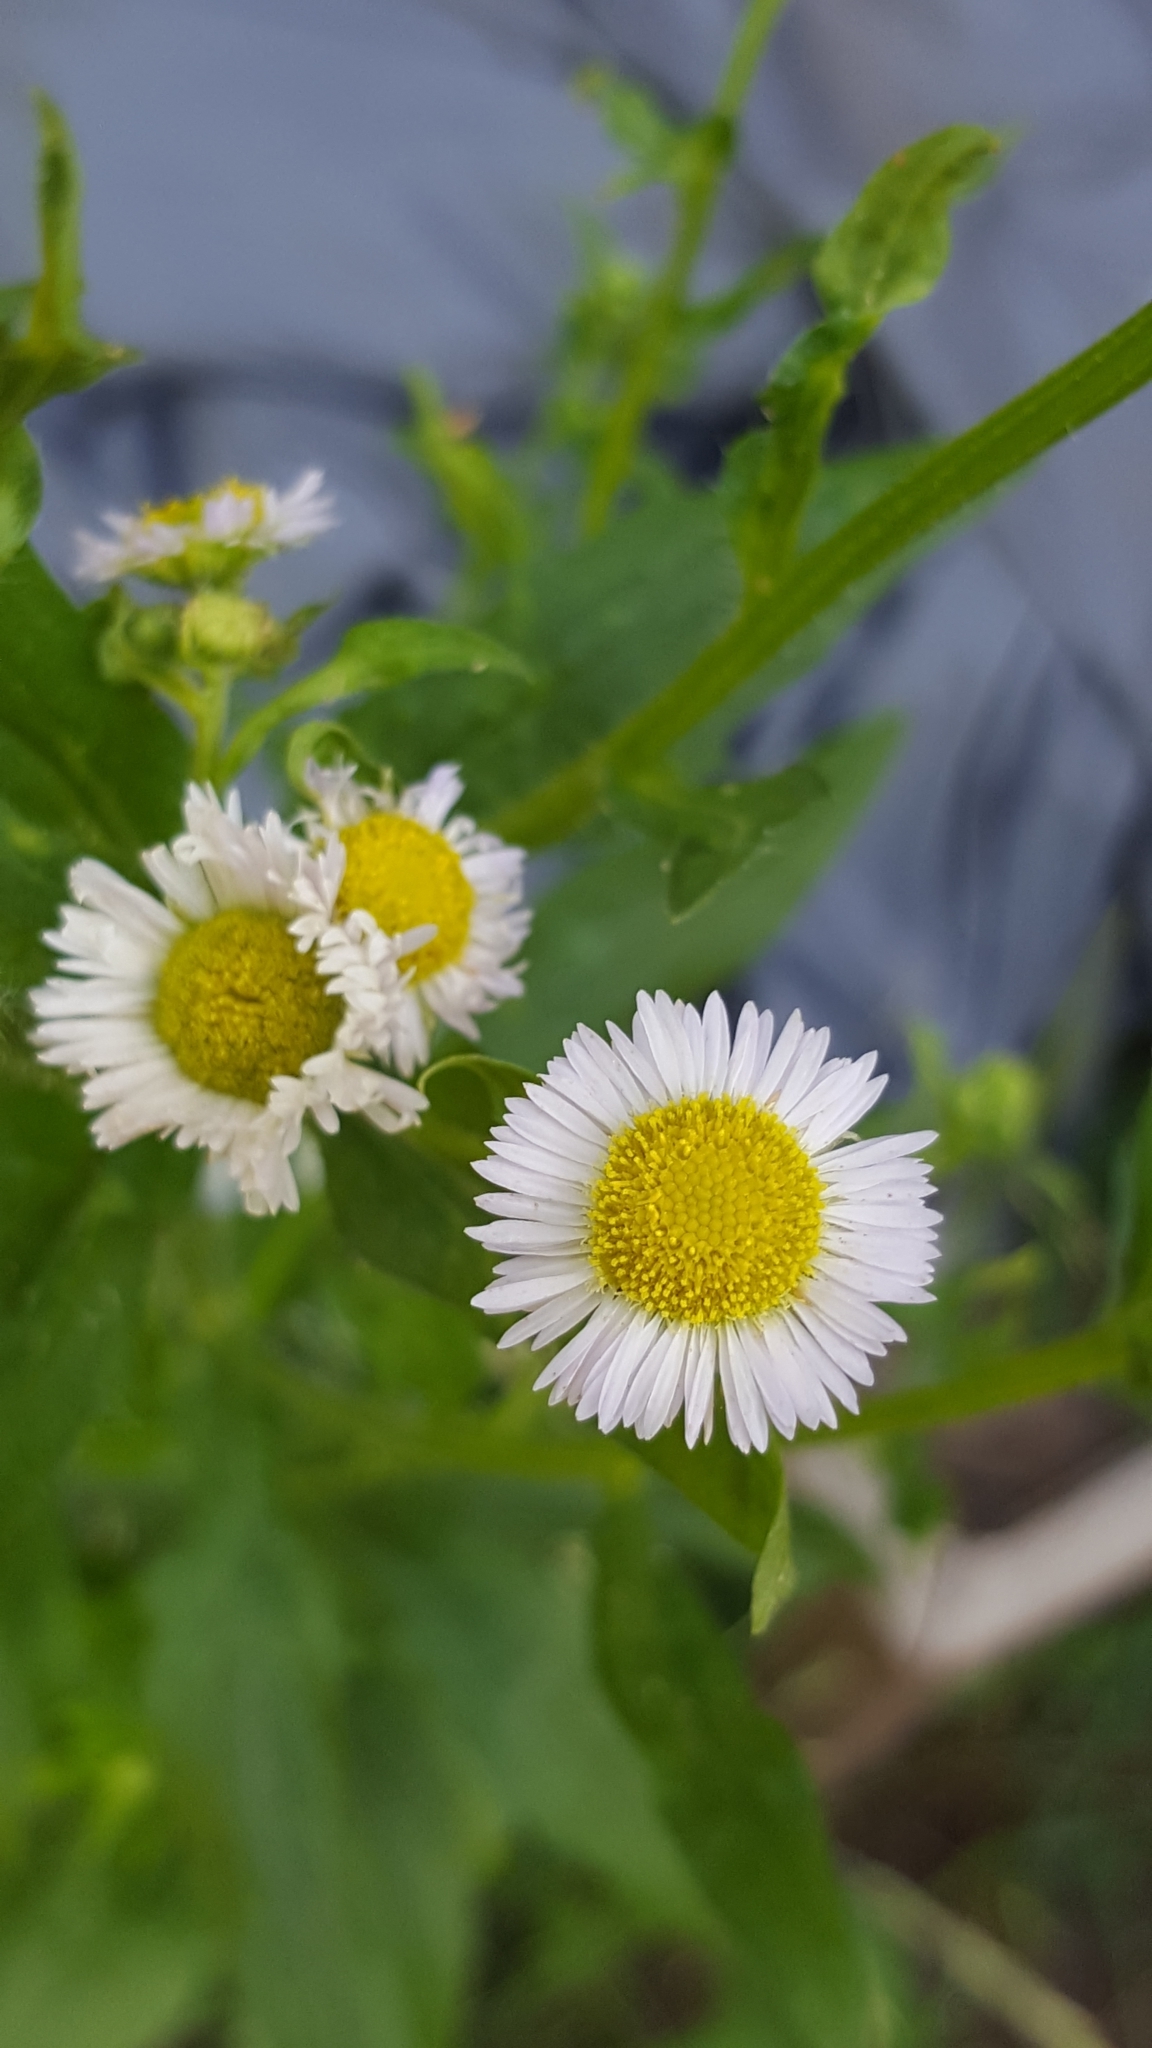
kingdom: Plantae
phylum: Tracheophyta
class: Magnoliopsida
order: Asterales
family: Asteraceae
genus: Erigeron
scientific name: Erigeron annuus
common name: Tall fleabane
